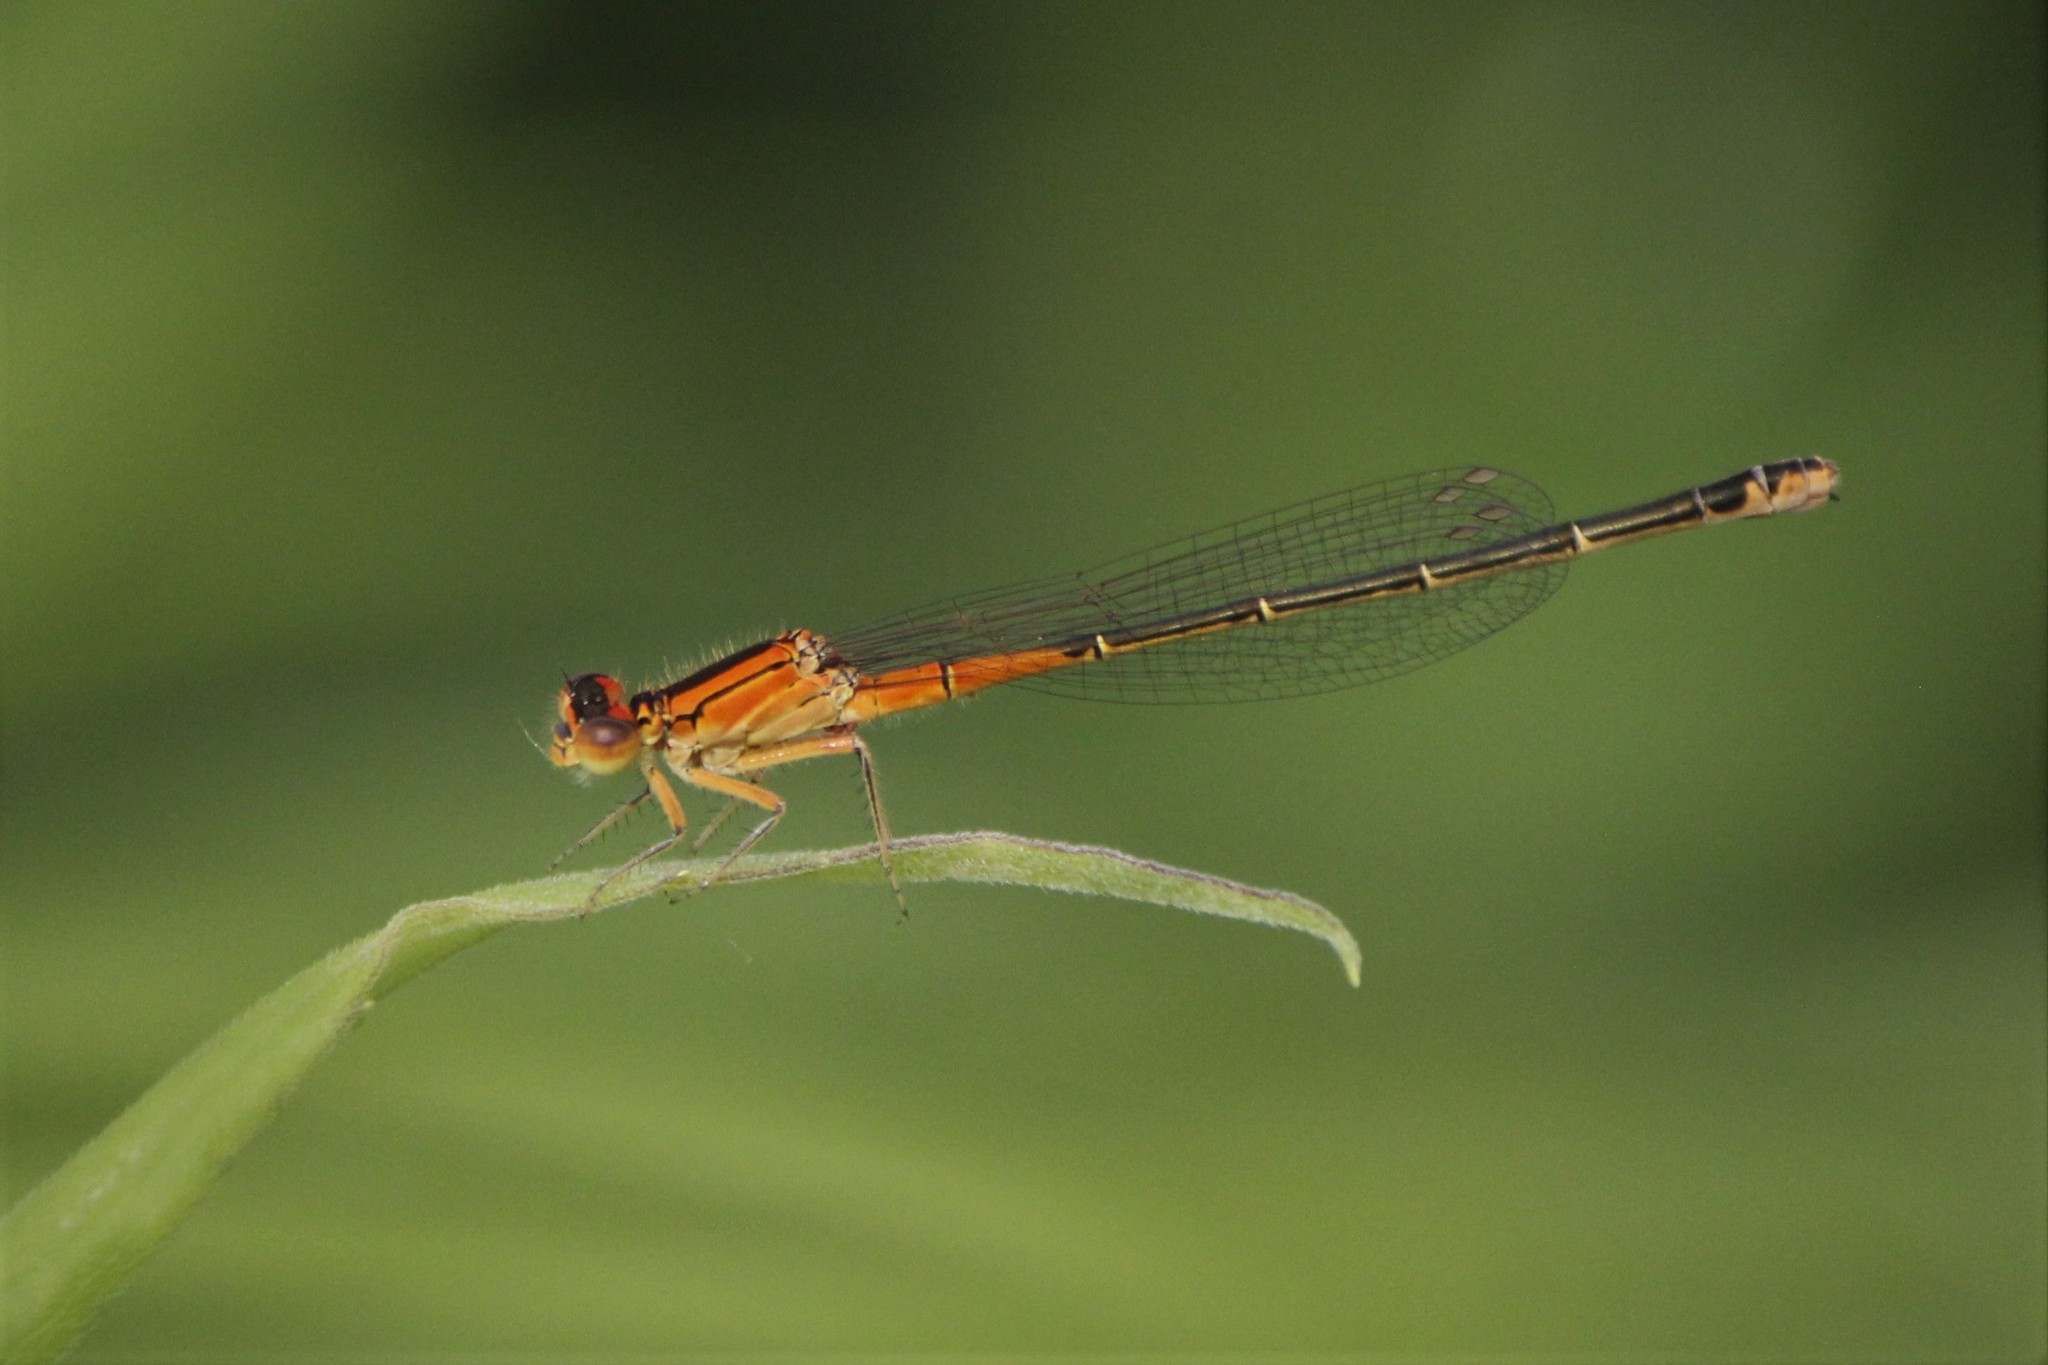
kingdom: Animalia
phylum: Arthropoda
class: Insecta
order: Odonata
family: Coenagrionidae
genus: Ischnura
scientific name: Ischnura verticalis
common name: Eastern forktail
